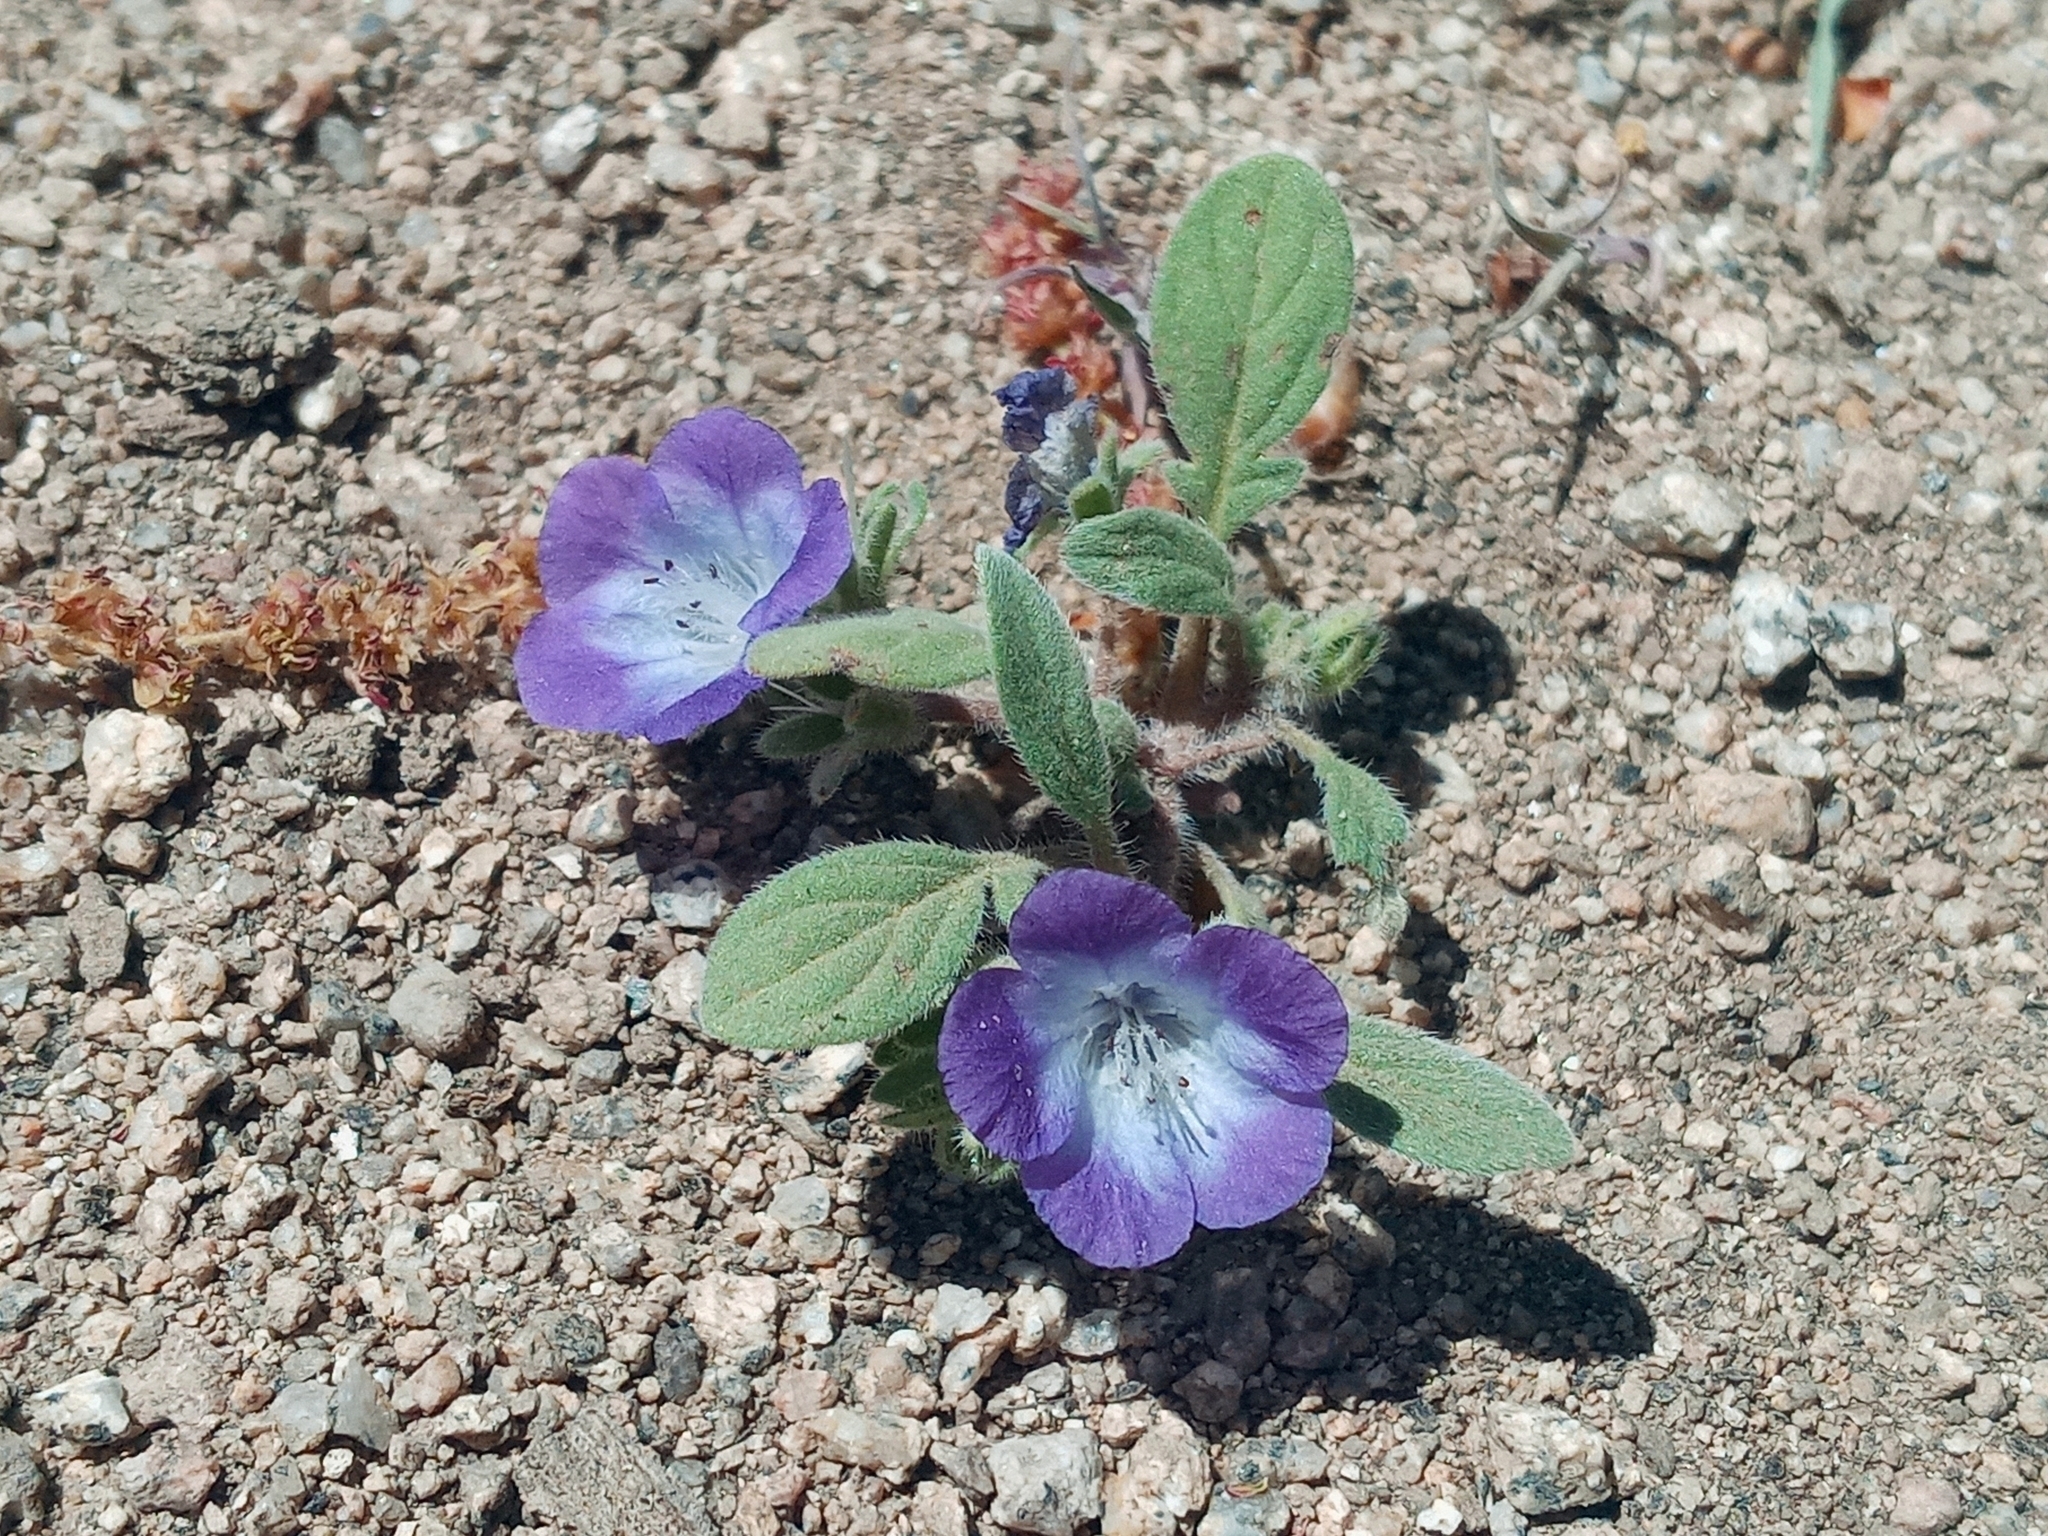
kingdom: Plantae
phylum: Tracheophyta
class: Magnoliopsida
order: Boraginales
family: Hydrophyllaceae
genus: Phacelia
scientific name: Phacelia davidsonii
